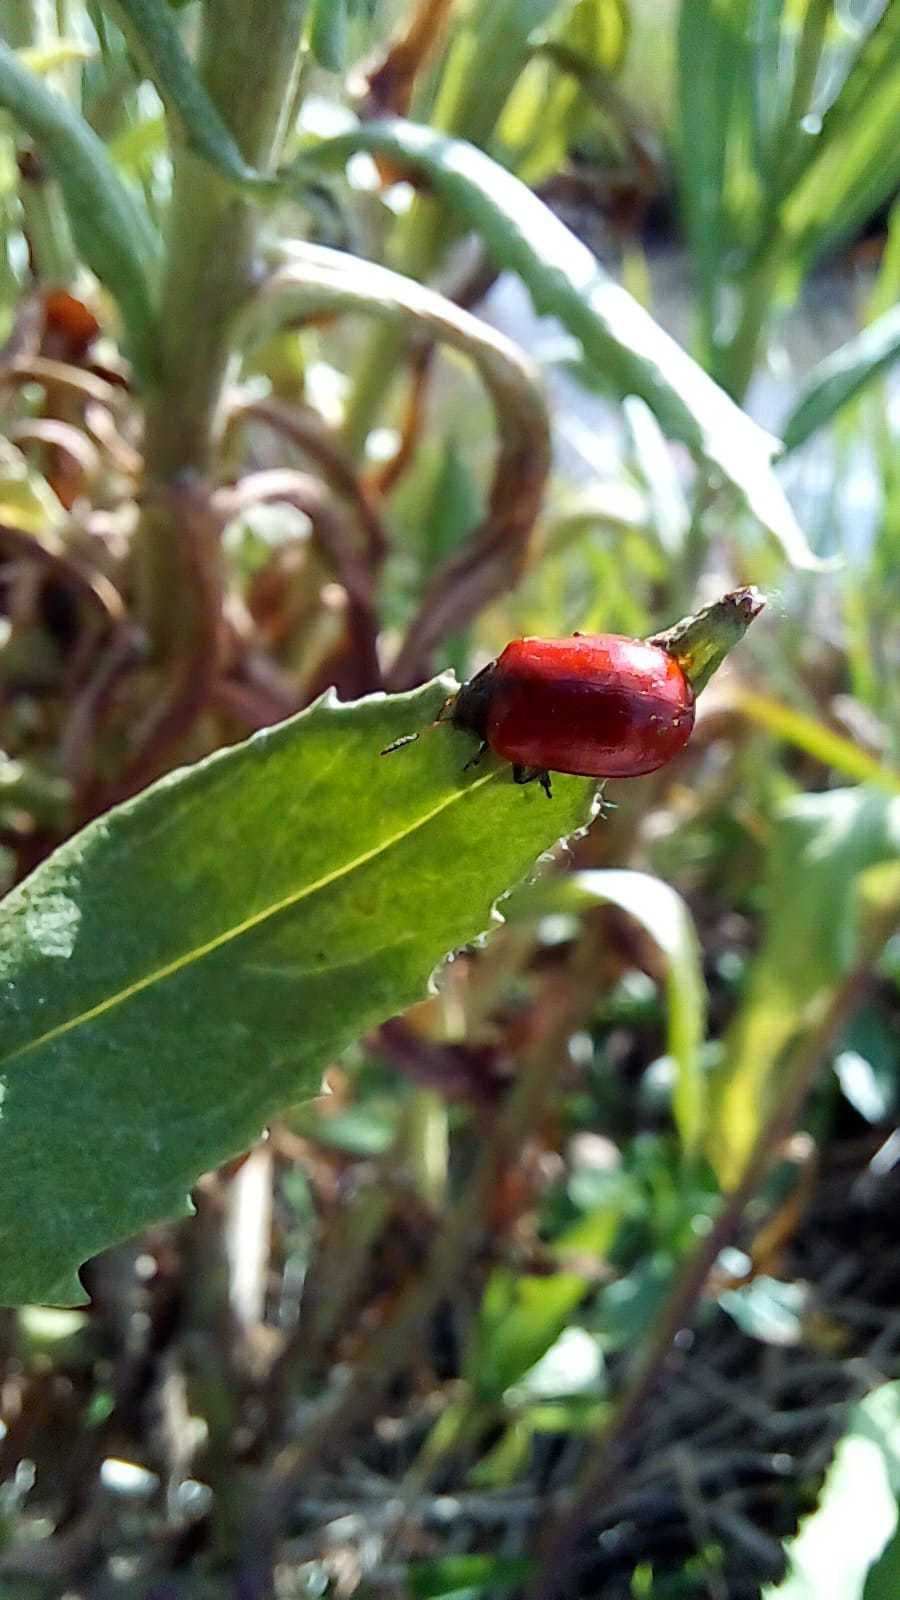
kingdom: Animalia
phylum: Arthropoda
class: Insecta
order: Coleoptera
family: Chrysomelidae
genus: Plagiodera
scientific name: Plagiodera
